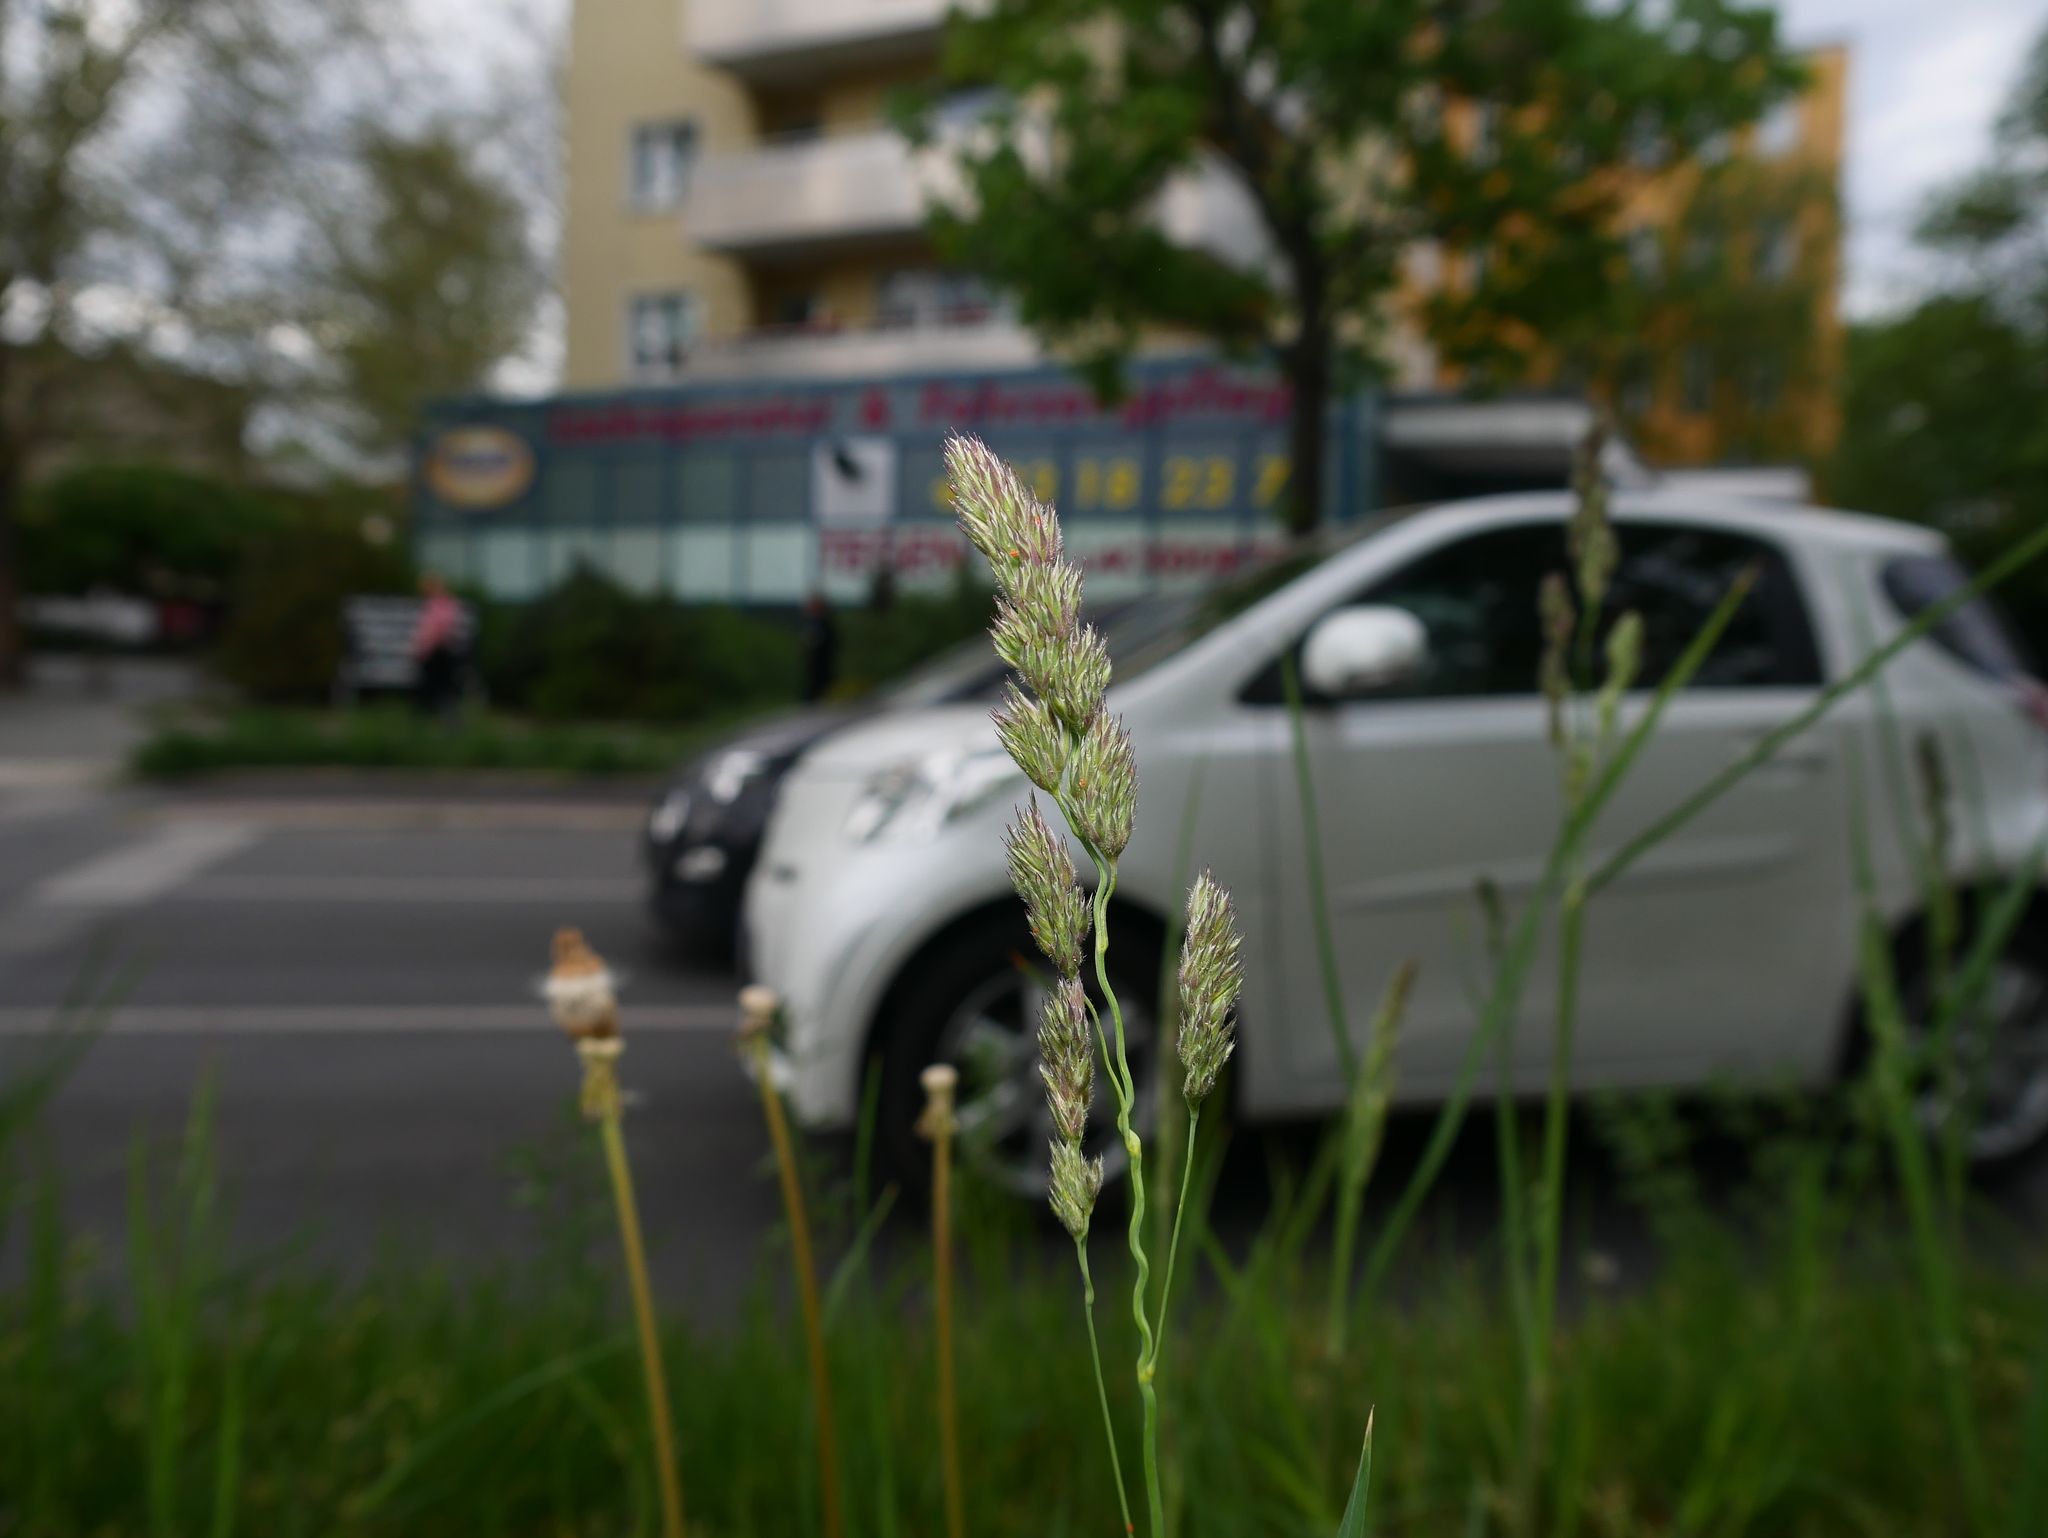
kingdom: Plantae
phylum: Tracheophyta
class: Liliopsida
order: Poales
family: Poaceae
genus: Dactylis
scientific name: Dactylis glomerata
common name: Orchardgrass
